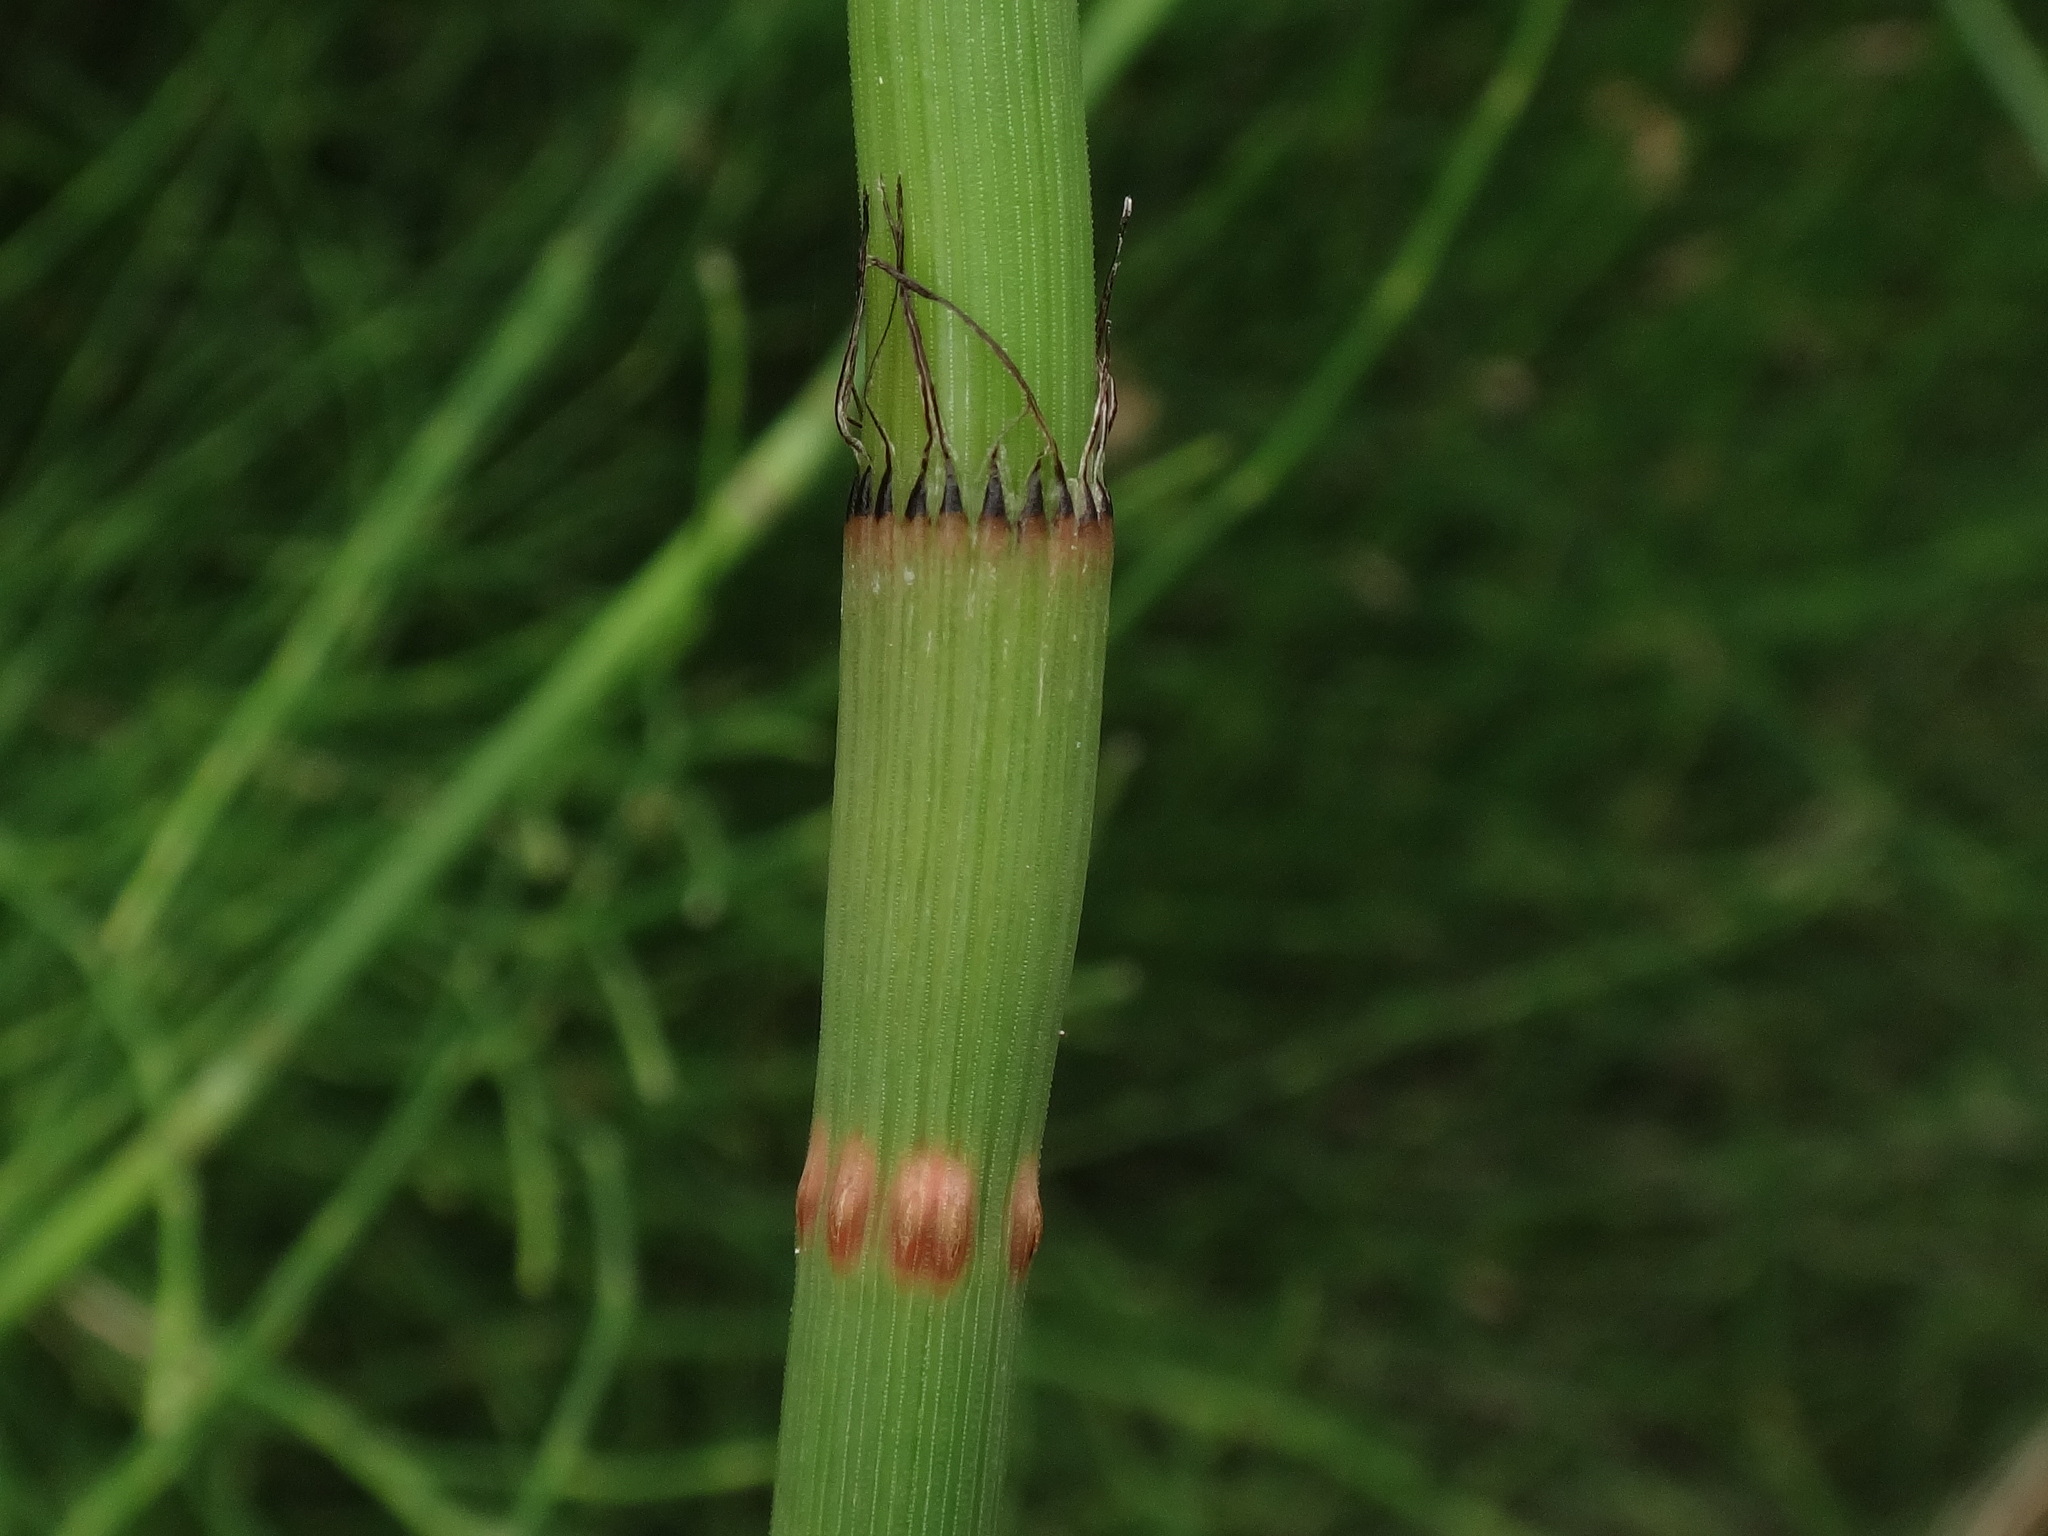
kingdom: Plantae
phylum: Tracheophyta
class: Polypodiopsida
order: Equisetales
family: Equisetaceae
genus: Equisetum
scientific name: Equisetum ramosissimum
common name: Branched horsetail
